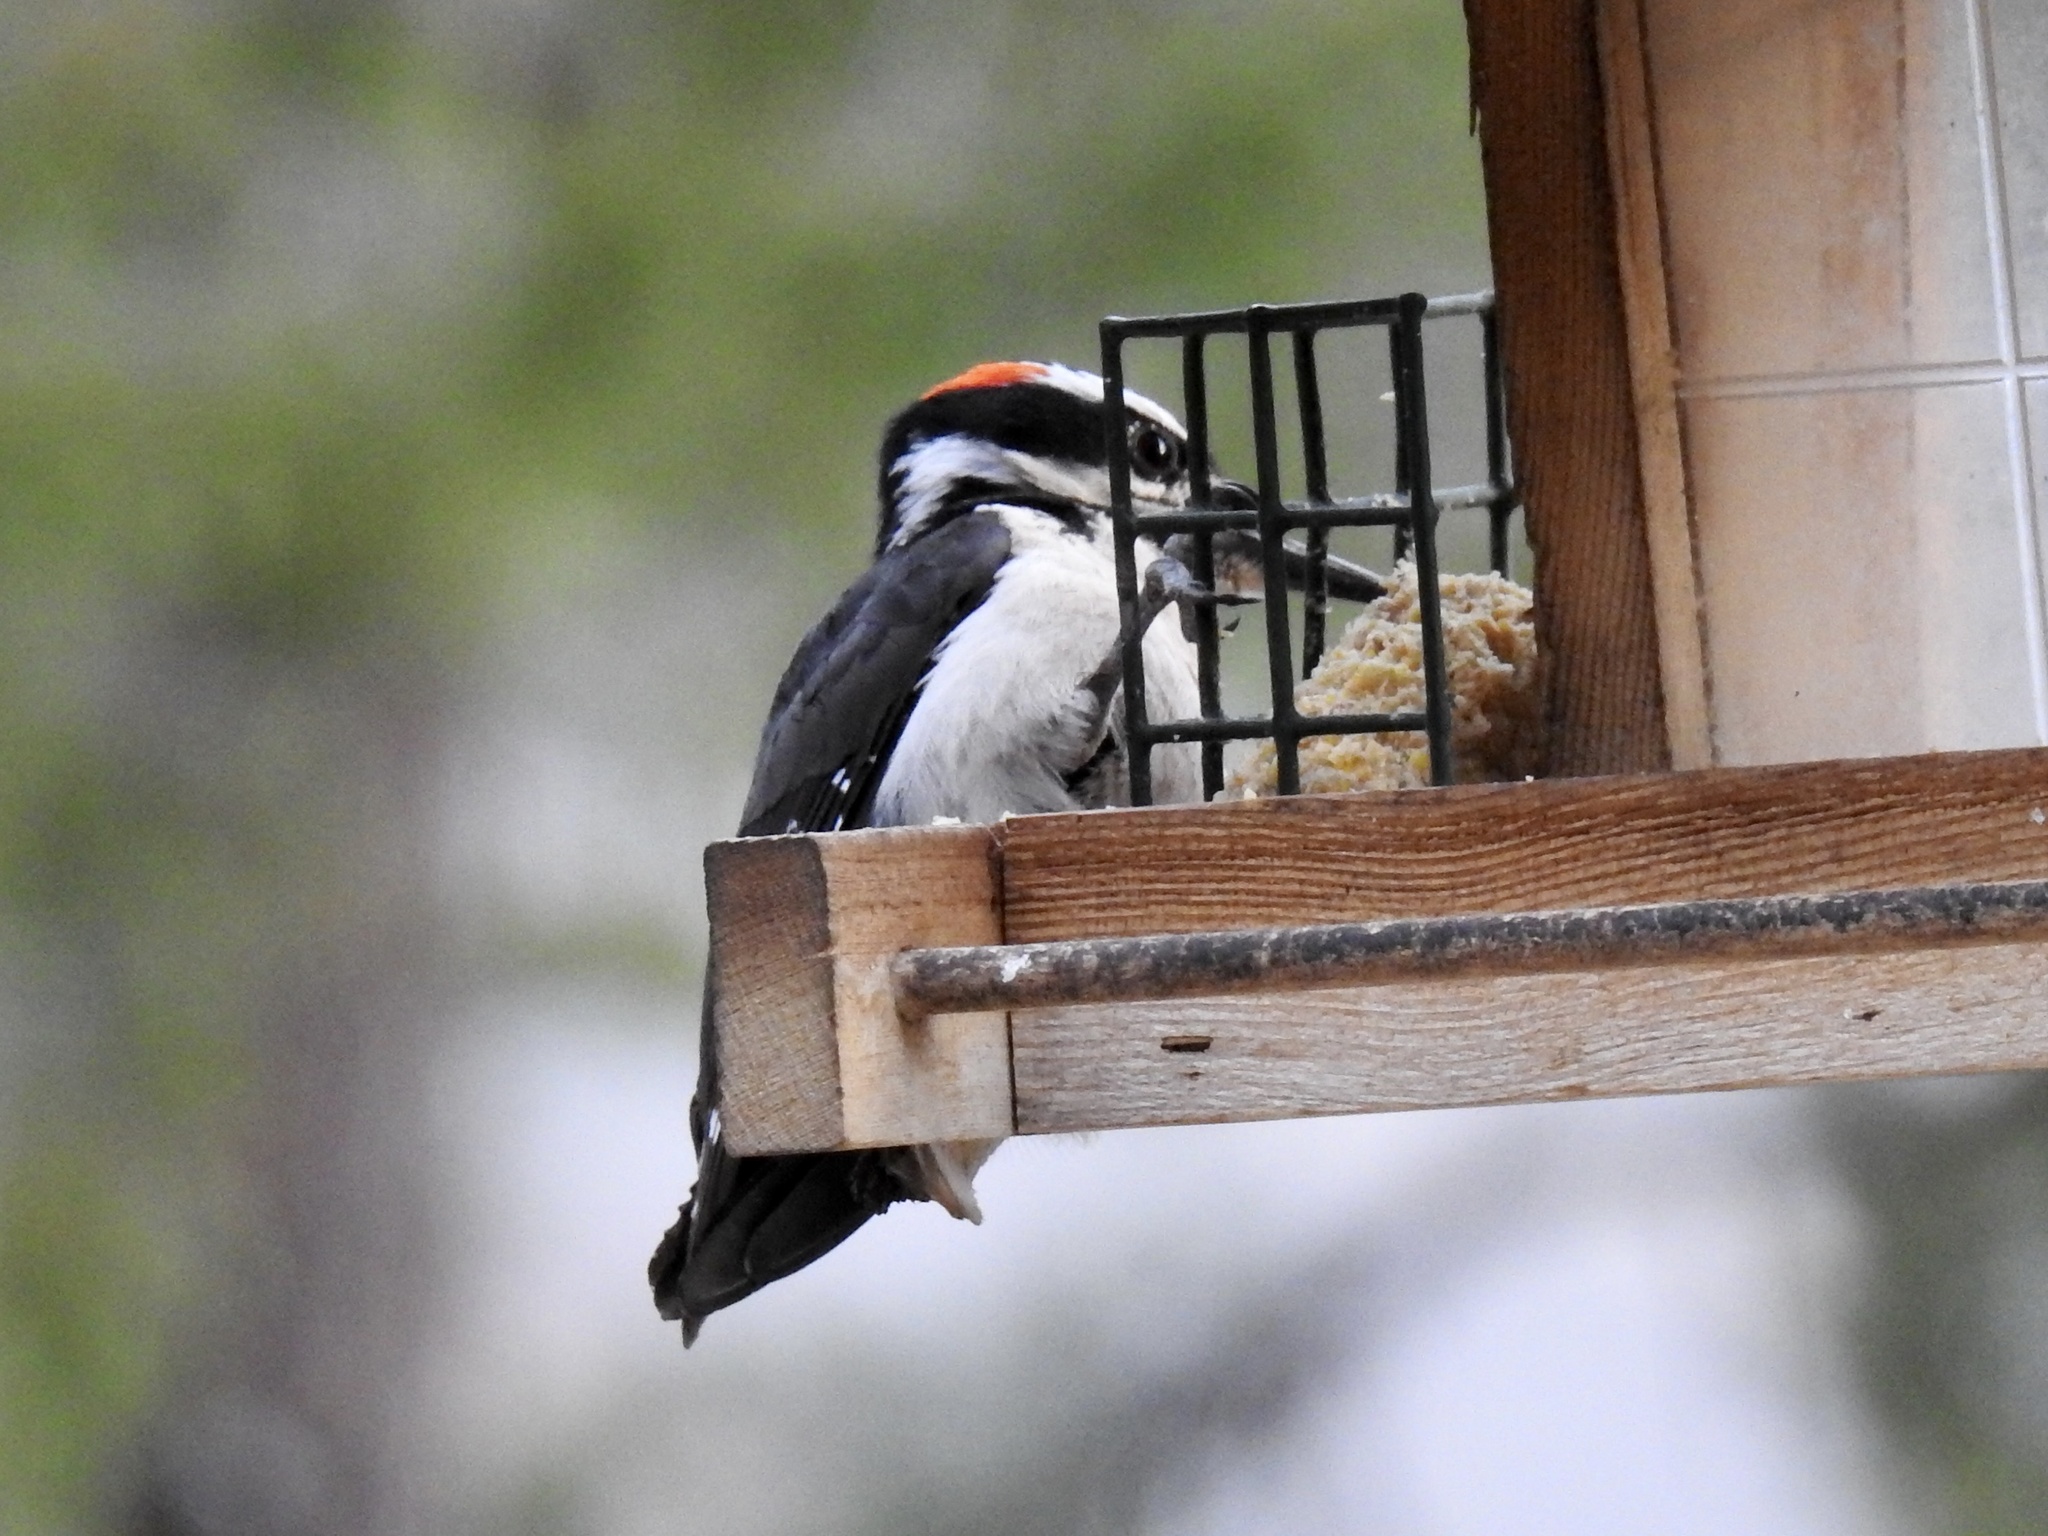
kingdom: Animalia
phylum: Chordata
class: Aves
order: Piciformes
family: Picidae
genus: Leuconotopicus
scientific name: Leuconotopicus villosus
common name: Hairy woodpecker
